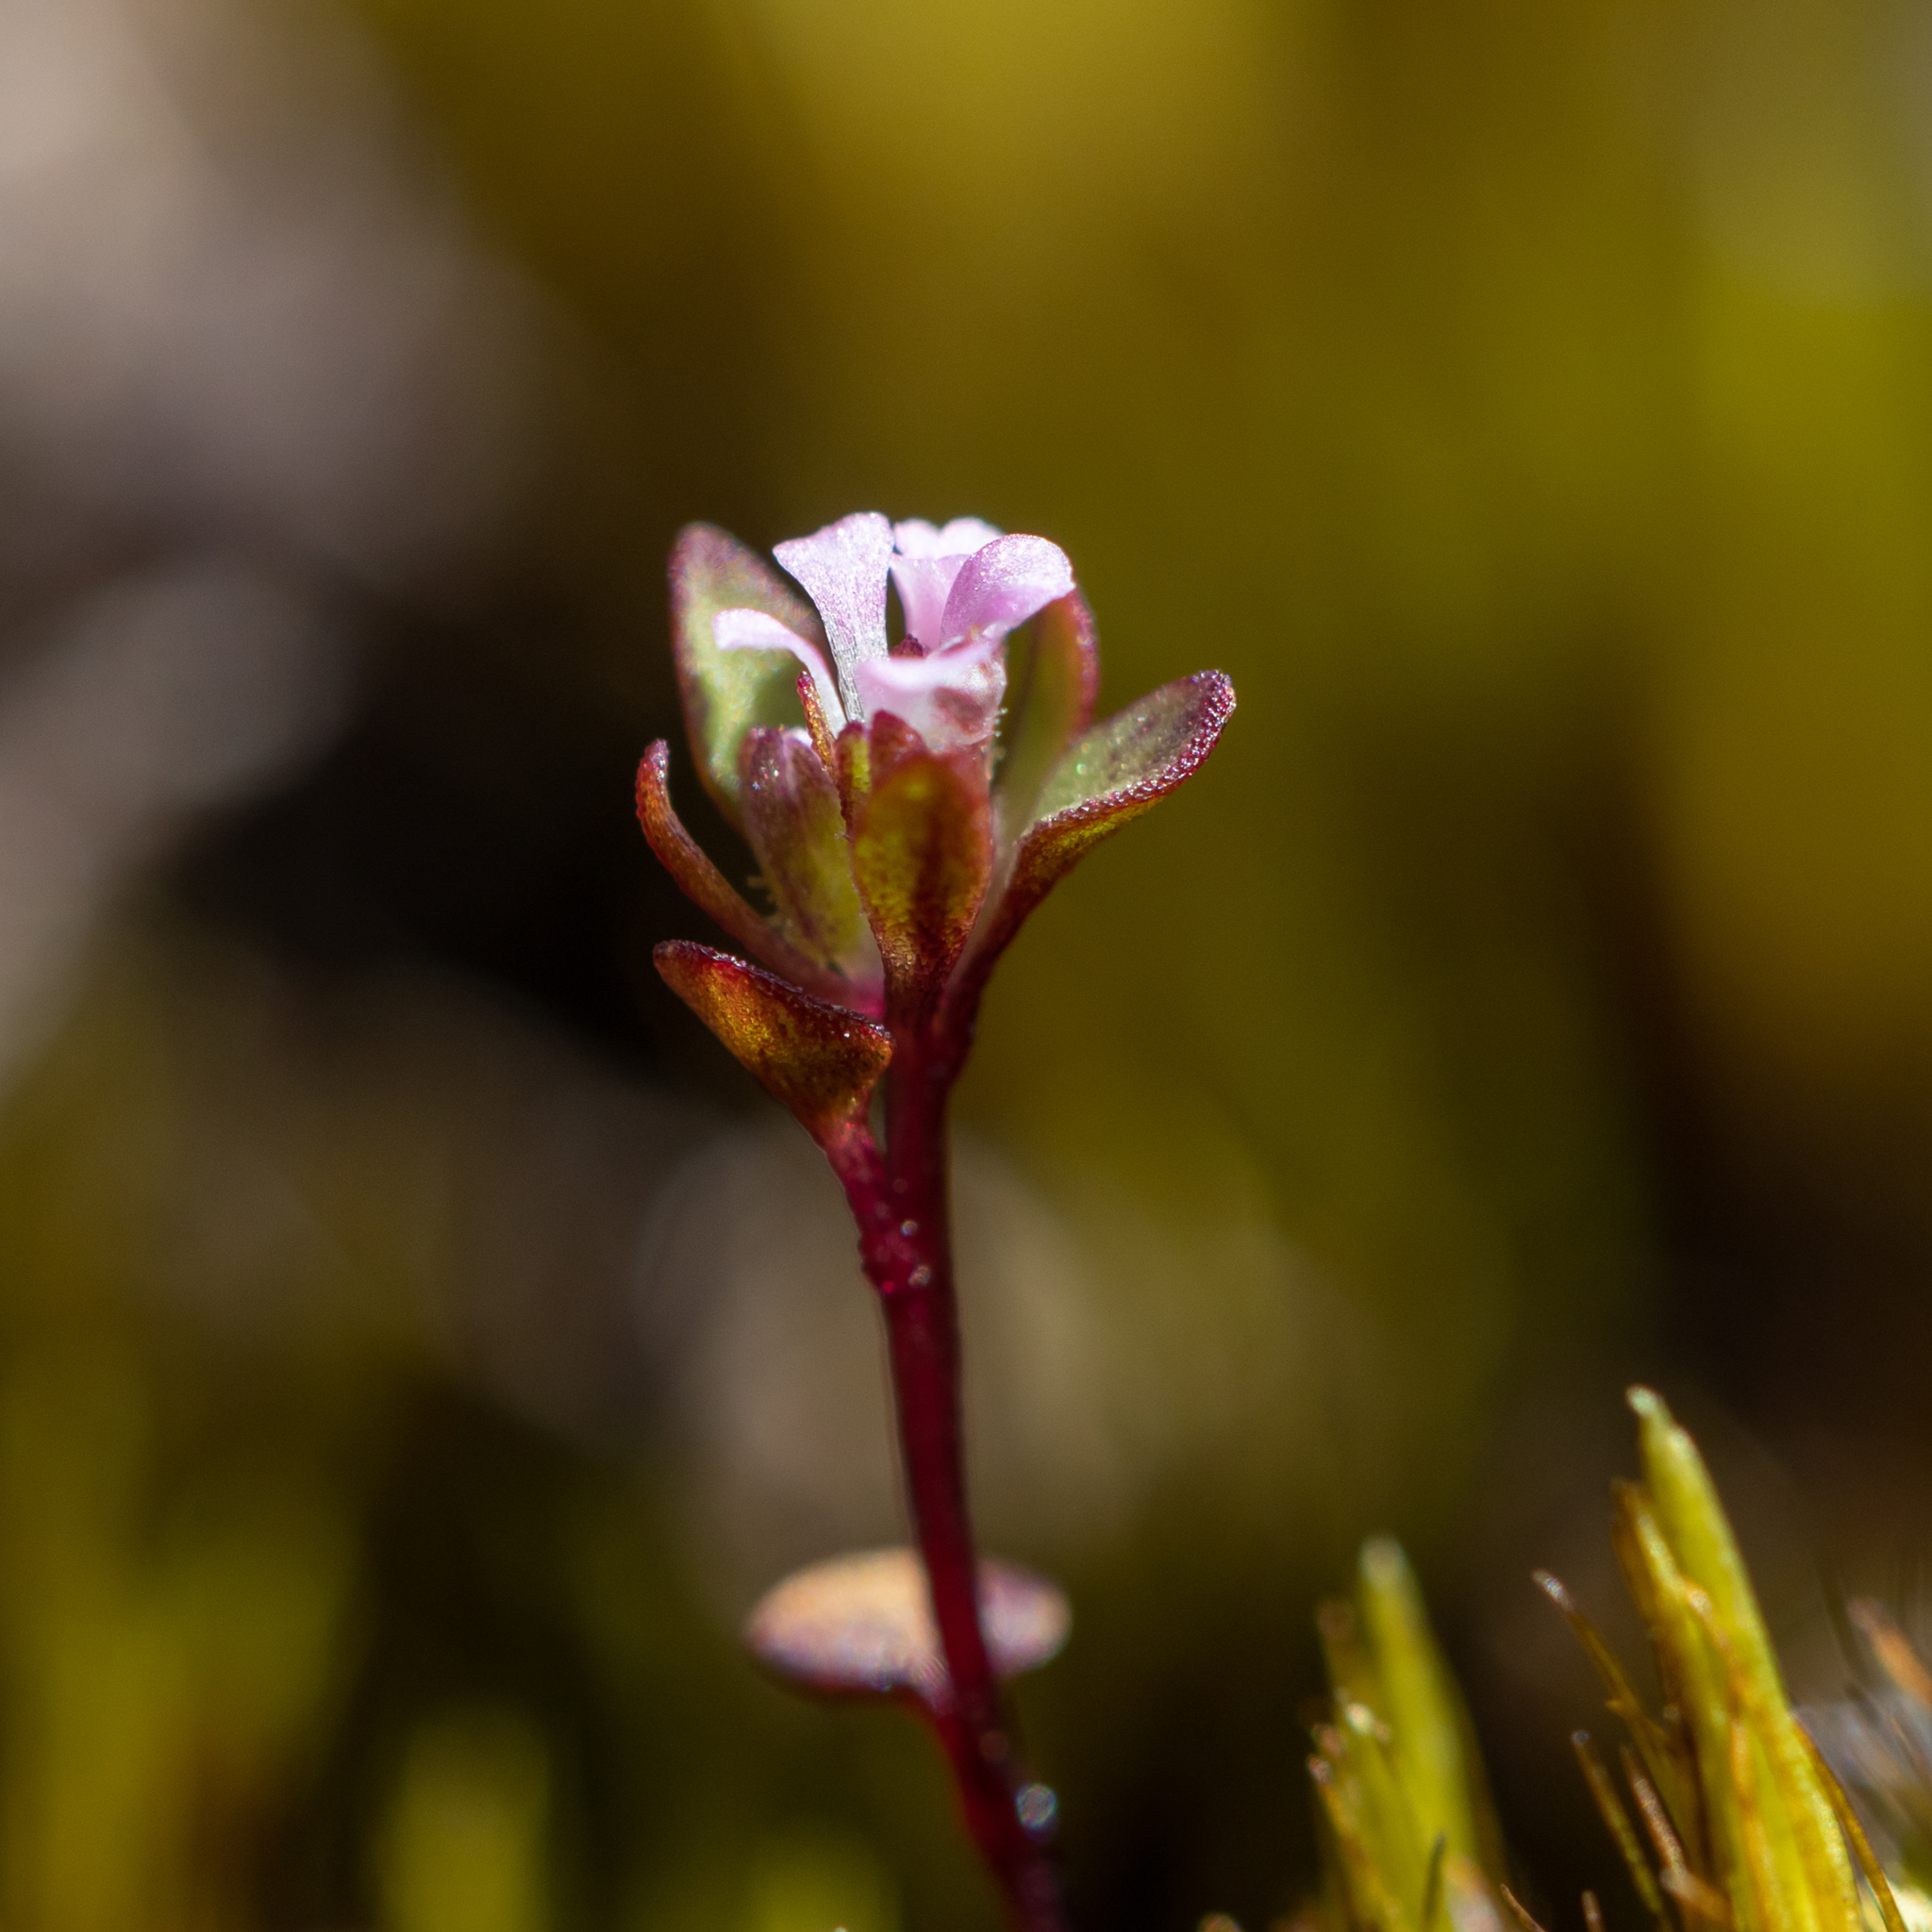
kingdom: Plantae
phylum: Tracheophyta
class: Magnoliopsida
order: Asterales
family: Stylidiaceae
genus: Levenhookia
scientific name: Levenhookia pusilla
